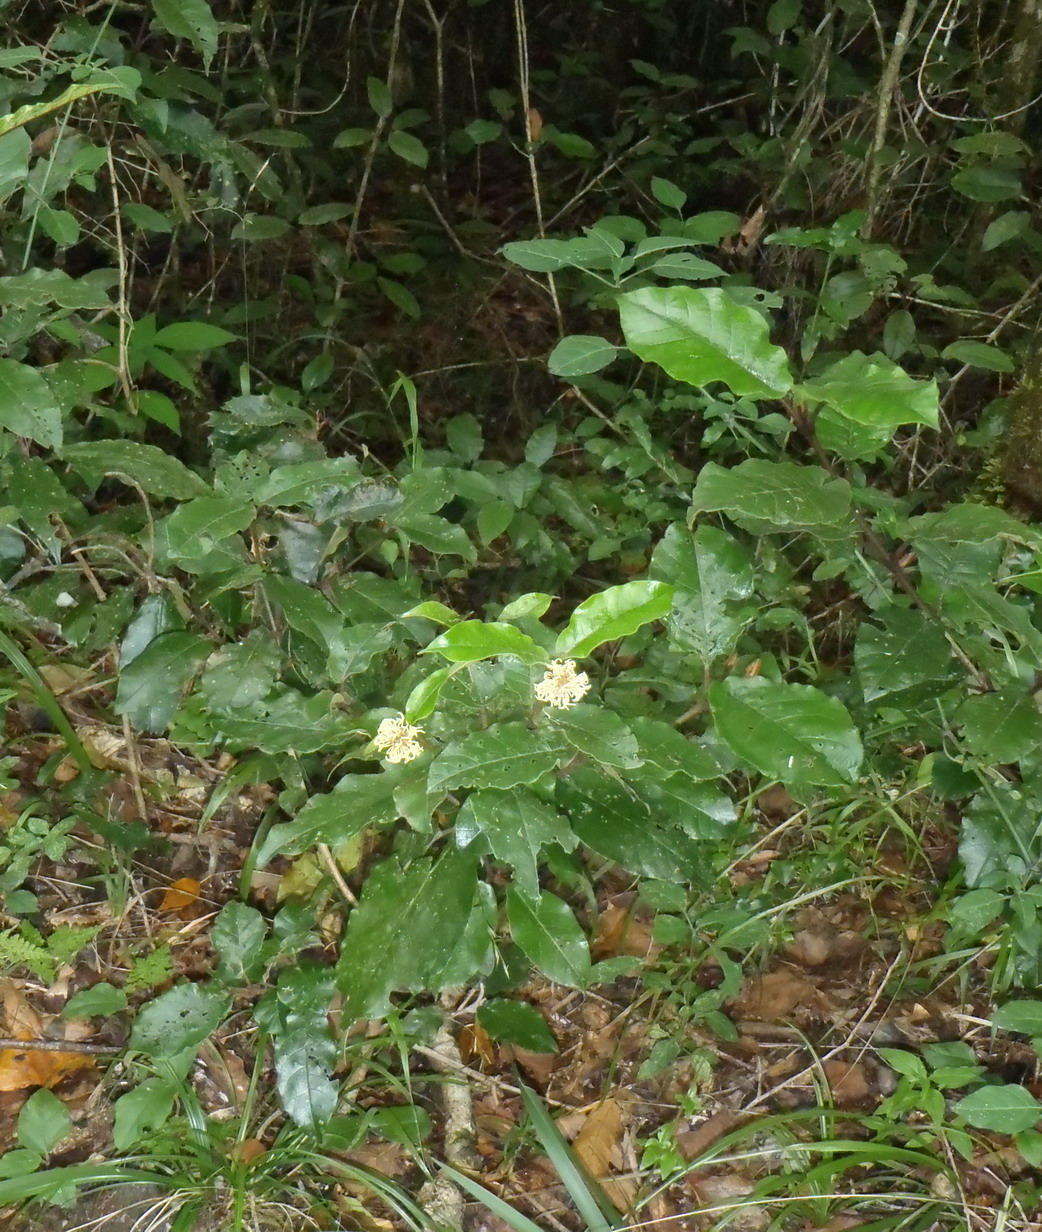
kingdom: Plantae
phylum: Tracheophyta
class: Magnoliopsida
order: Saxifragales
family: Hamamelidaceae
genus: Trichocladus
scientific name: Trichocladus crinitus
